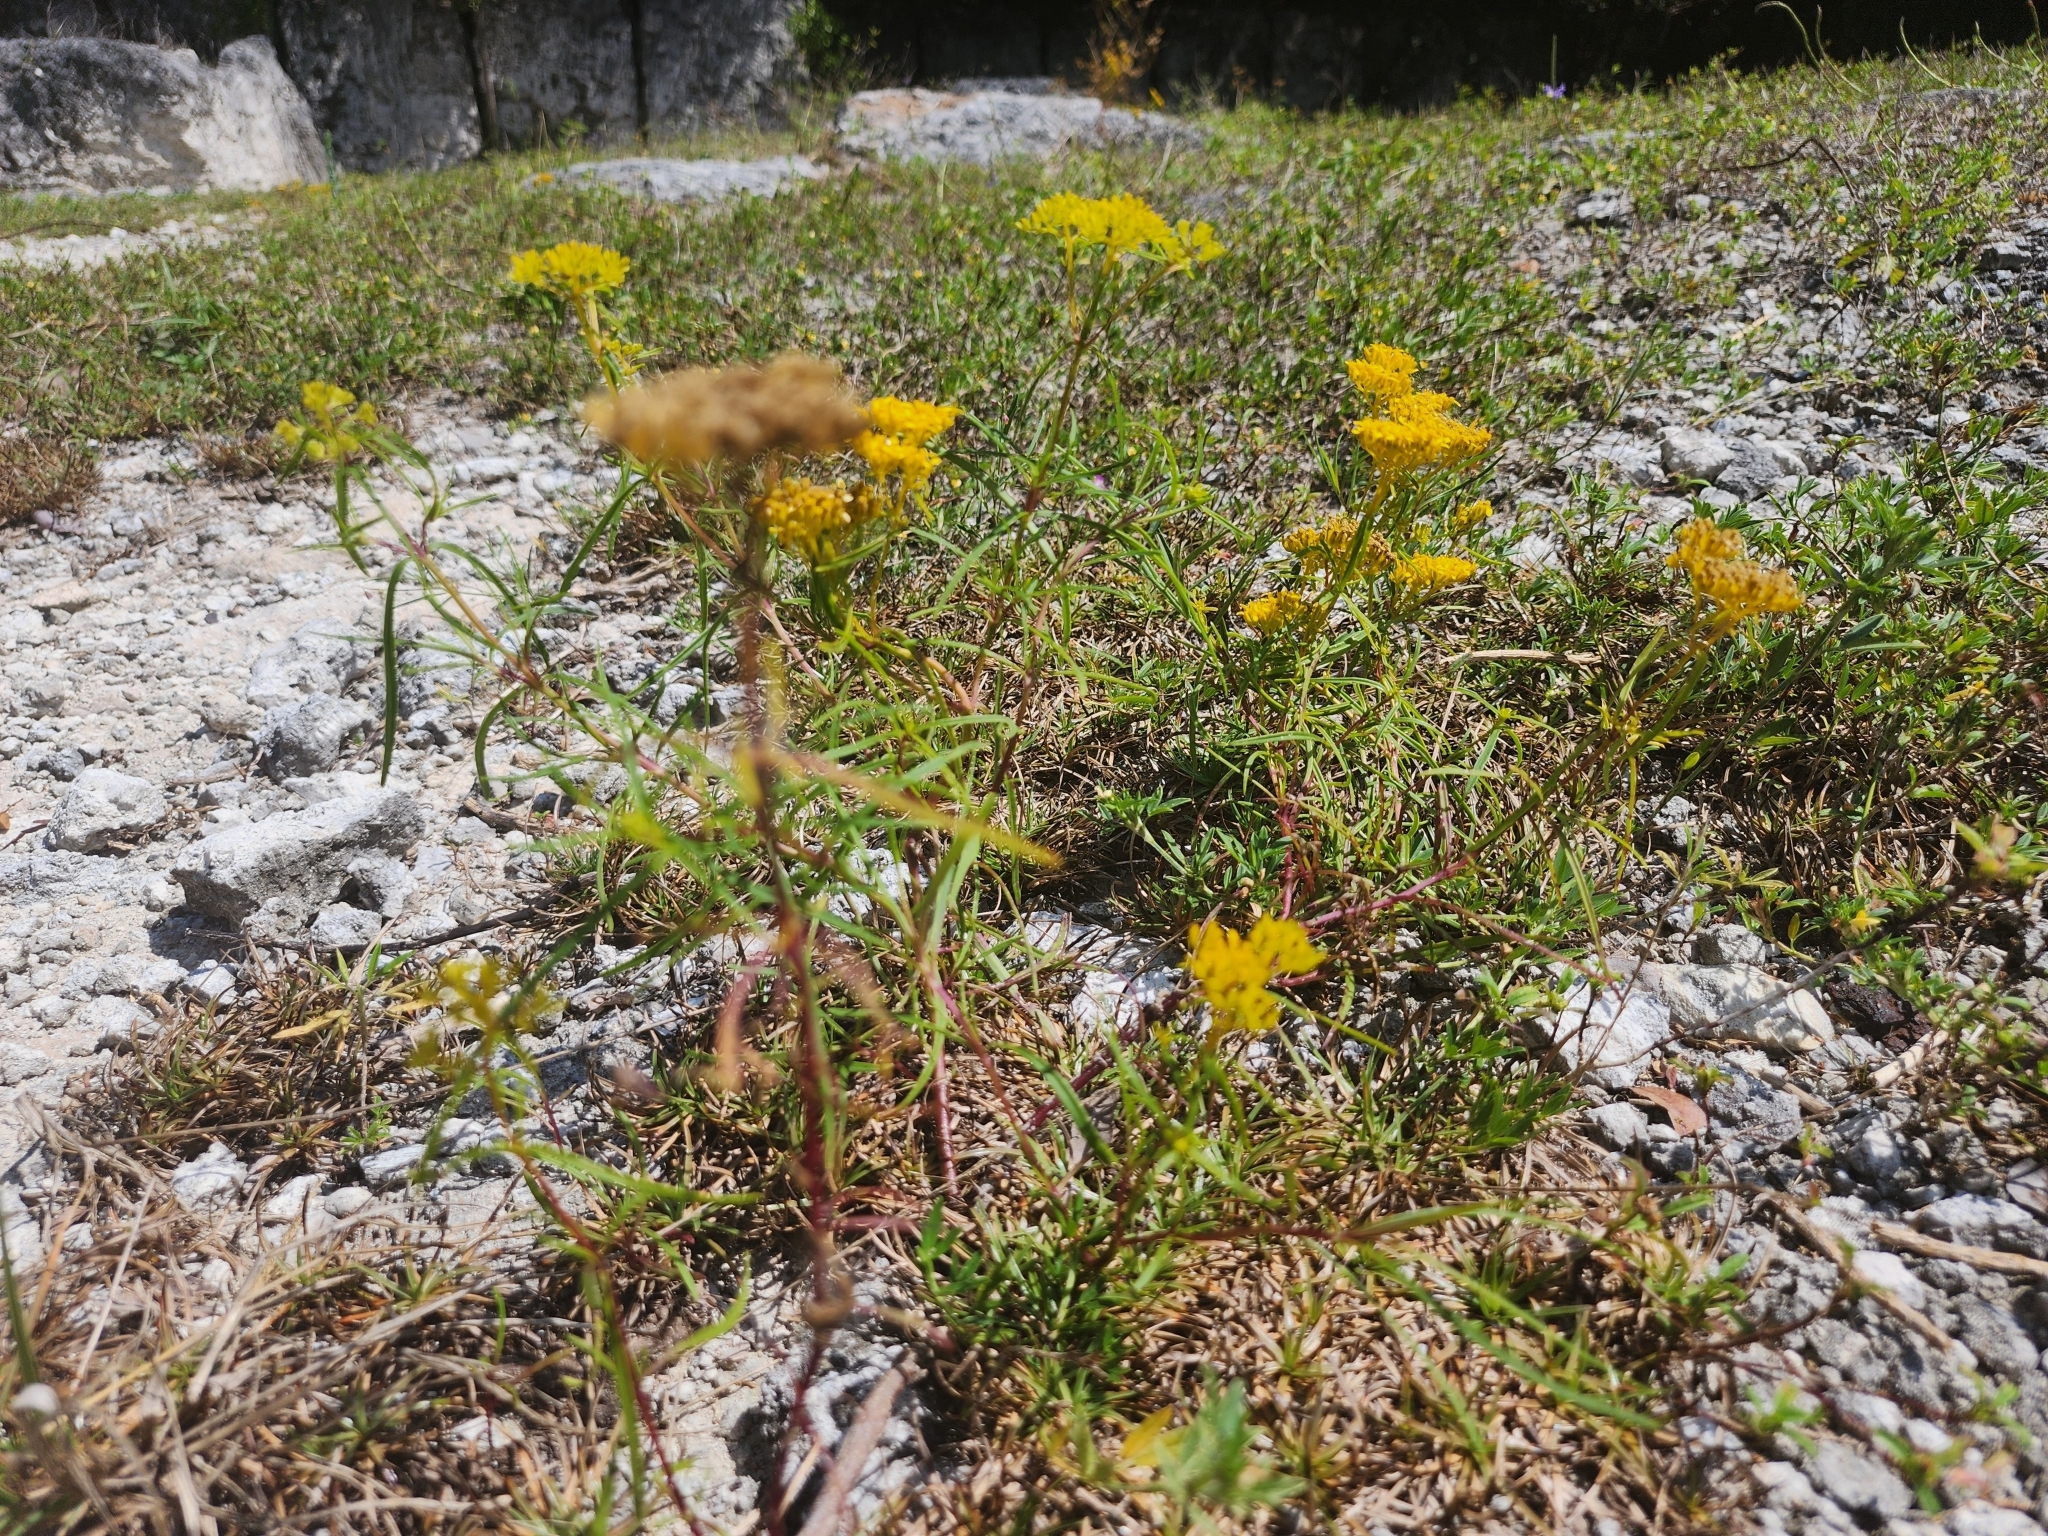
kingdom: Plantae
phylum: Tracheophyta
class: Magnoliopsida
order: Asterales
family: Asteraceae
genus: Flaveria
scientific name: Flaveria linearis
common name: Yellowtop
